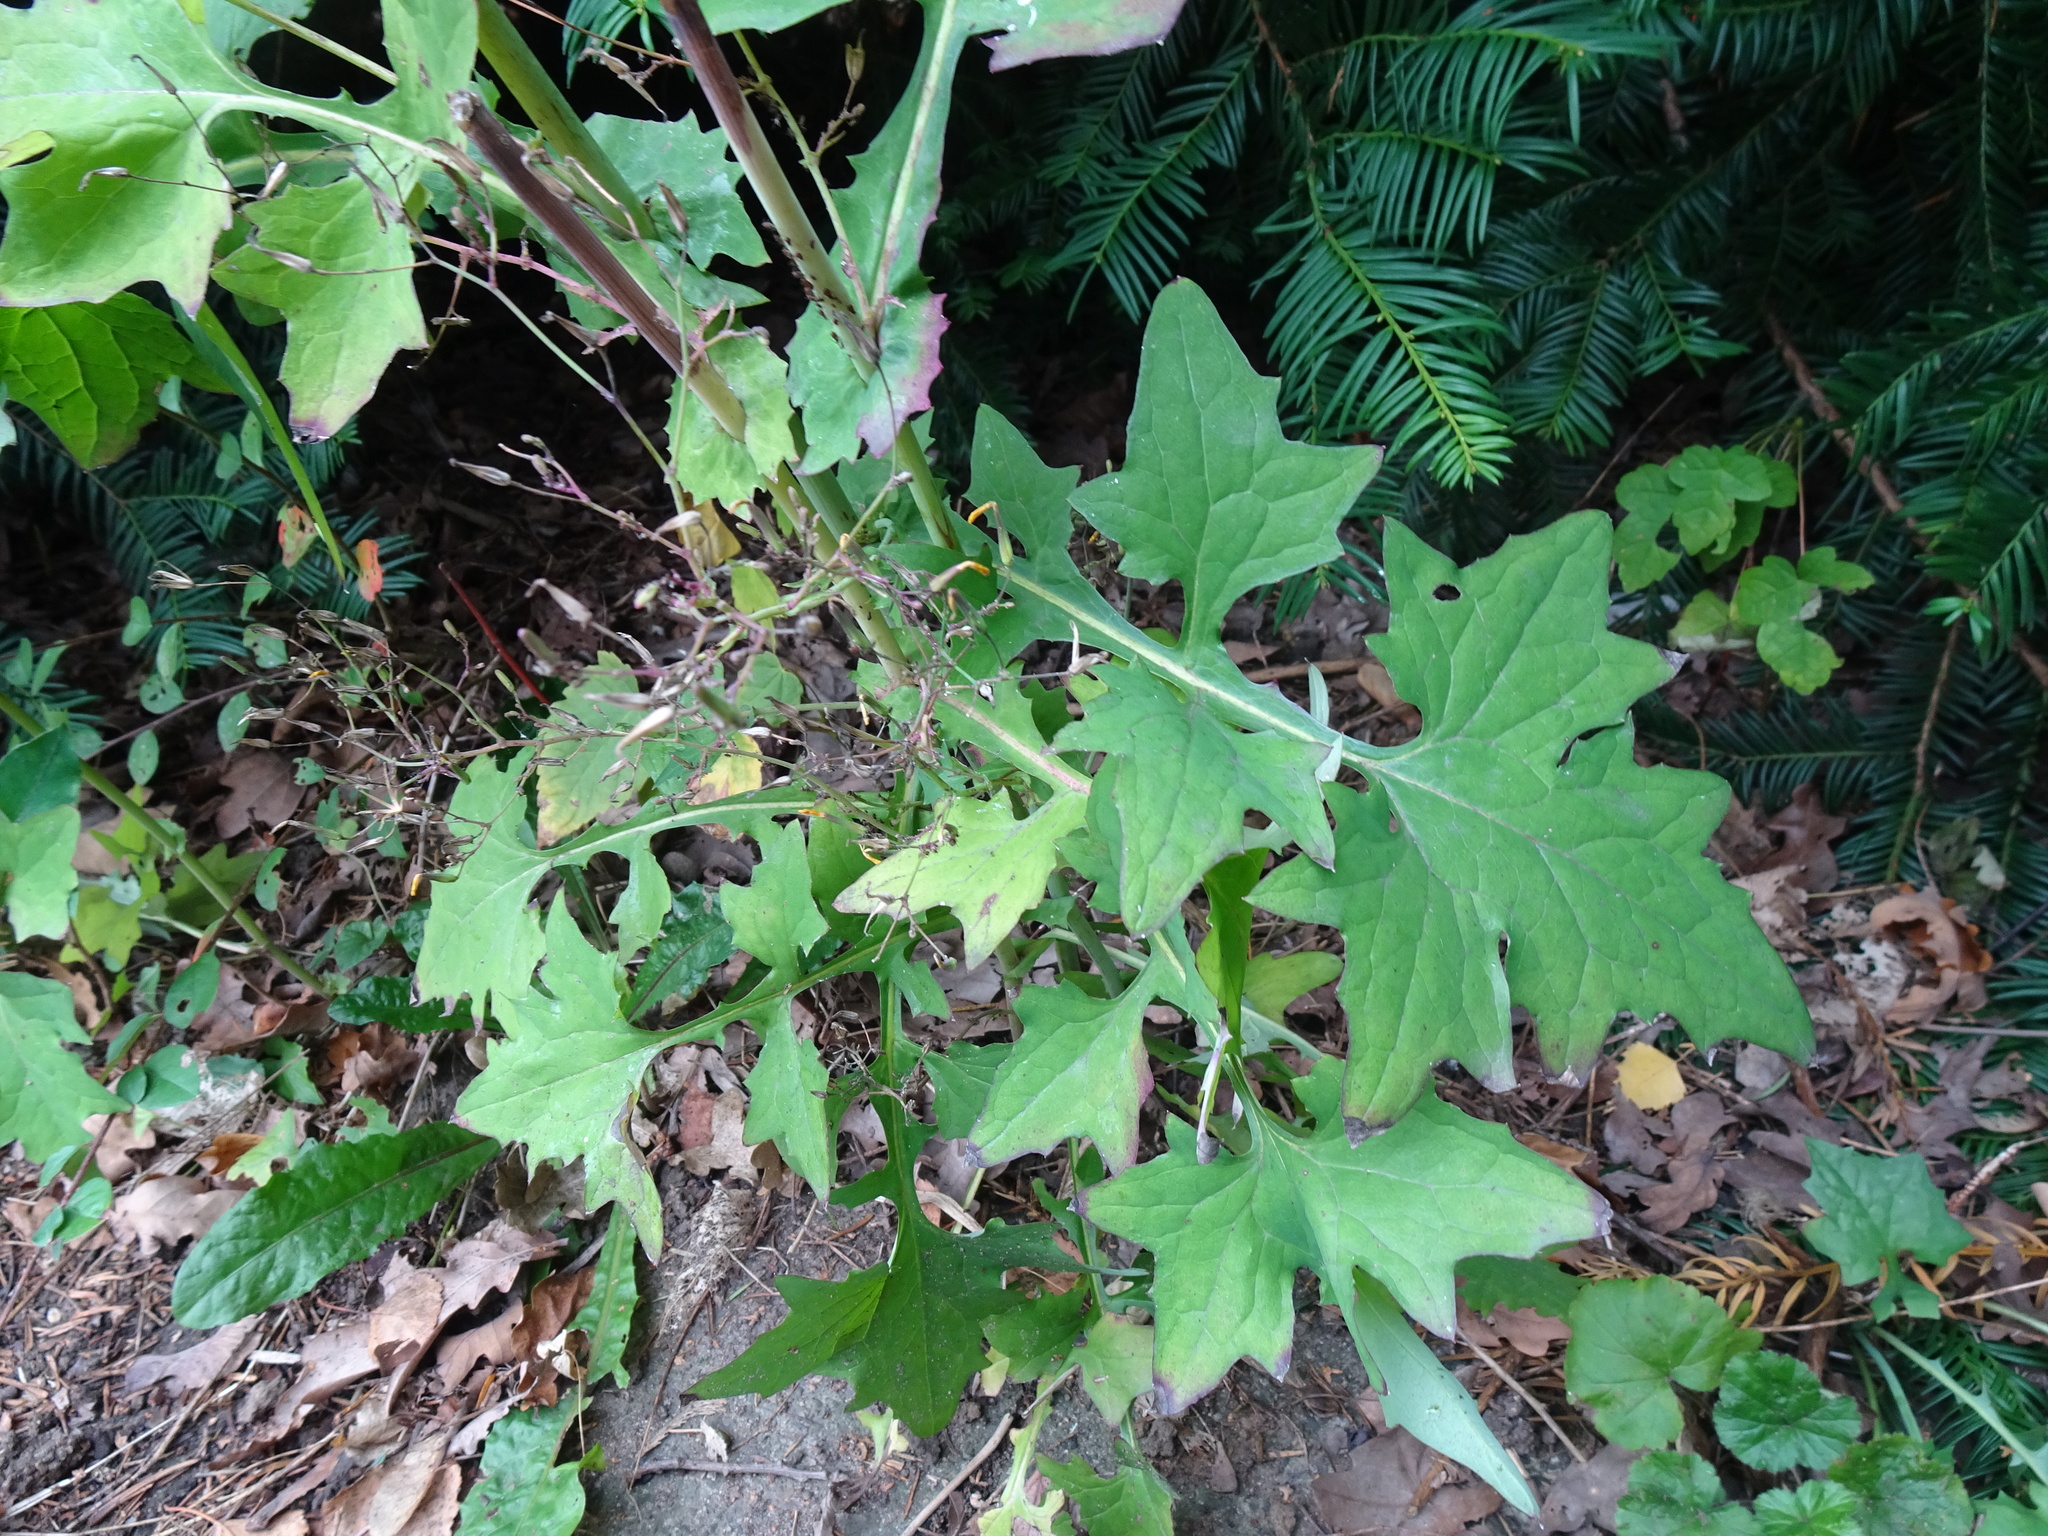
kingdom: Plantae
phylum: Tracheophyta
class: Magnoliopsida
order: Asterales
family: Asteraceae
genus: Mycelis
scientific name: Mycelis muralis
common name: Wall lettuce
